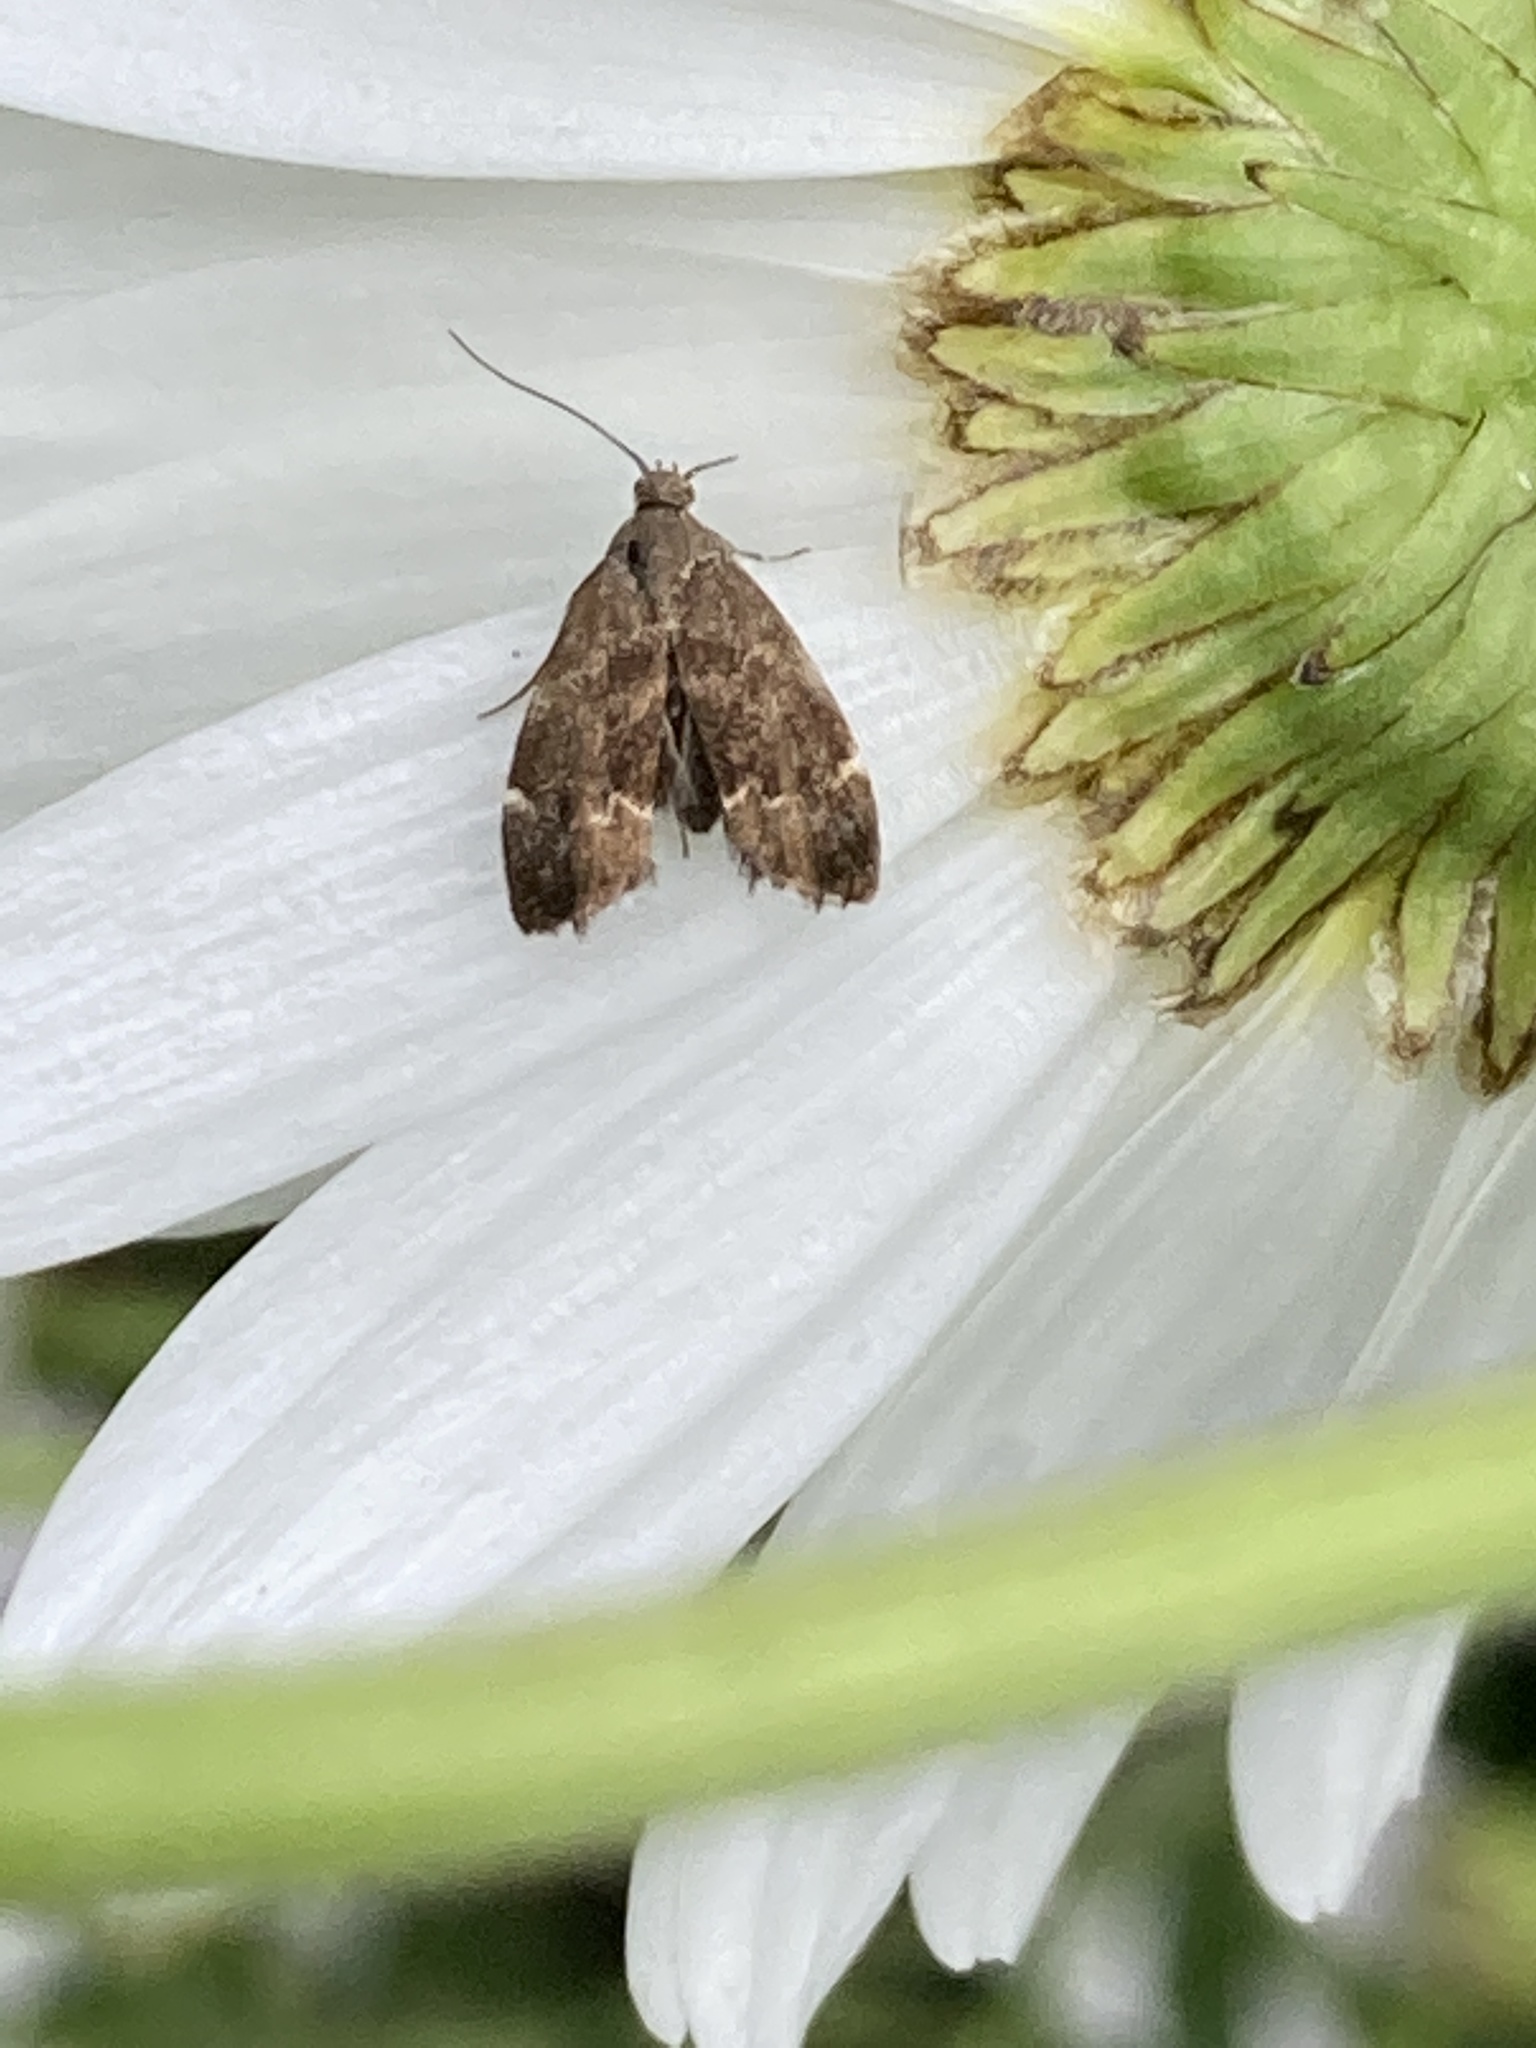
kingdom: Animalia
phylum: Arthropoda
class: Insecta
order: Lepidoptera
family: Choreutidae
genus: Anthophila
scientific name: Anthophila fabriciana
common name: Nettle-tap
